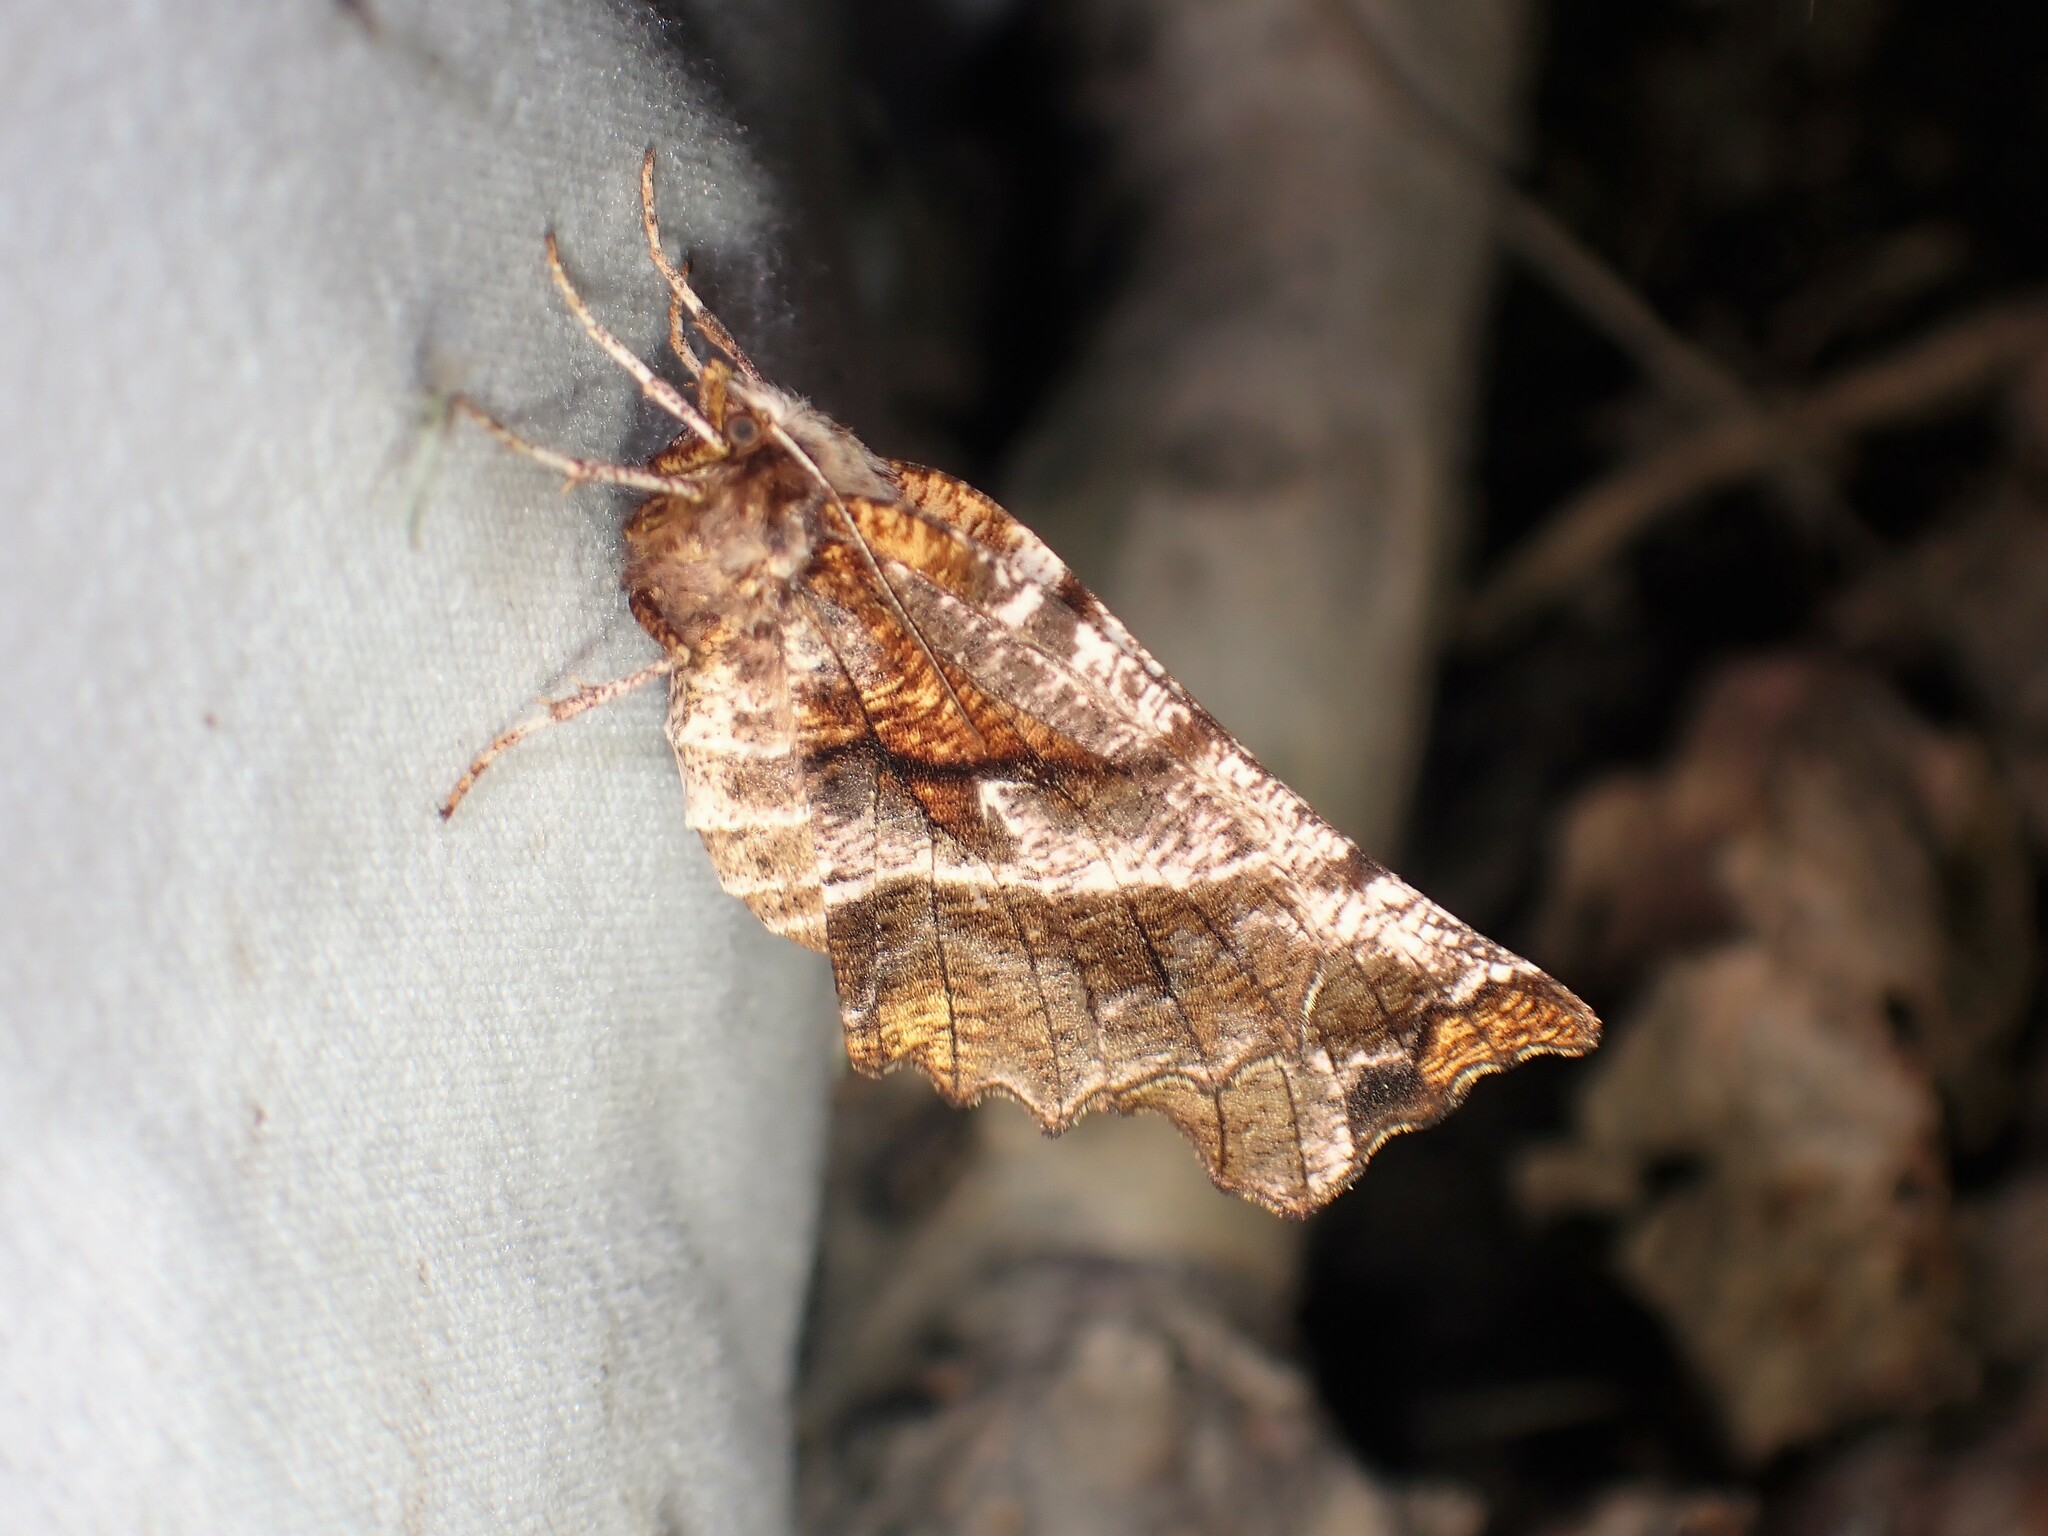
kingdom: Animalia
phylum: Arthropoda
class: Insecta
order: Lepidoptera
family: Geometridae
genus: Selenia
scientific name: Selenia alciphearia
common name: Brown-tipped thorn
